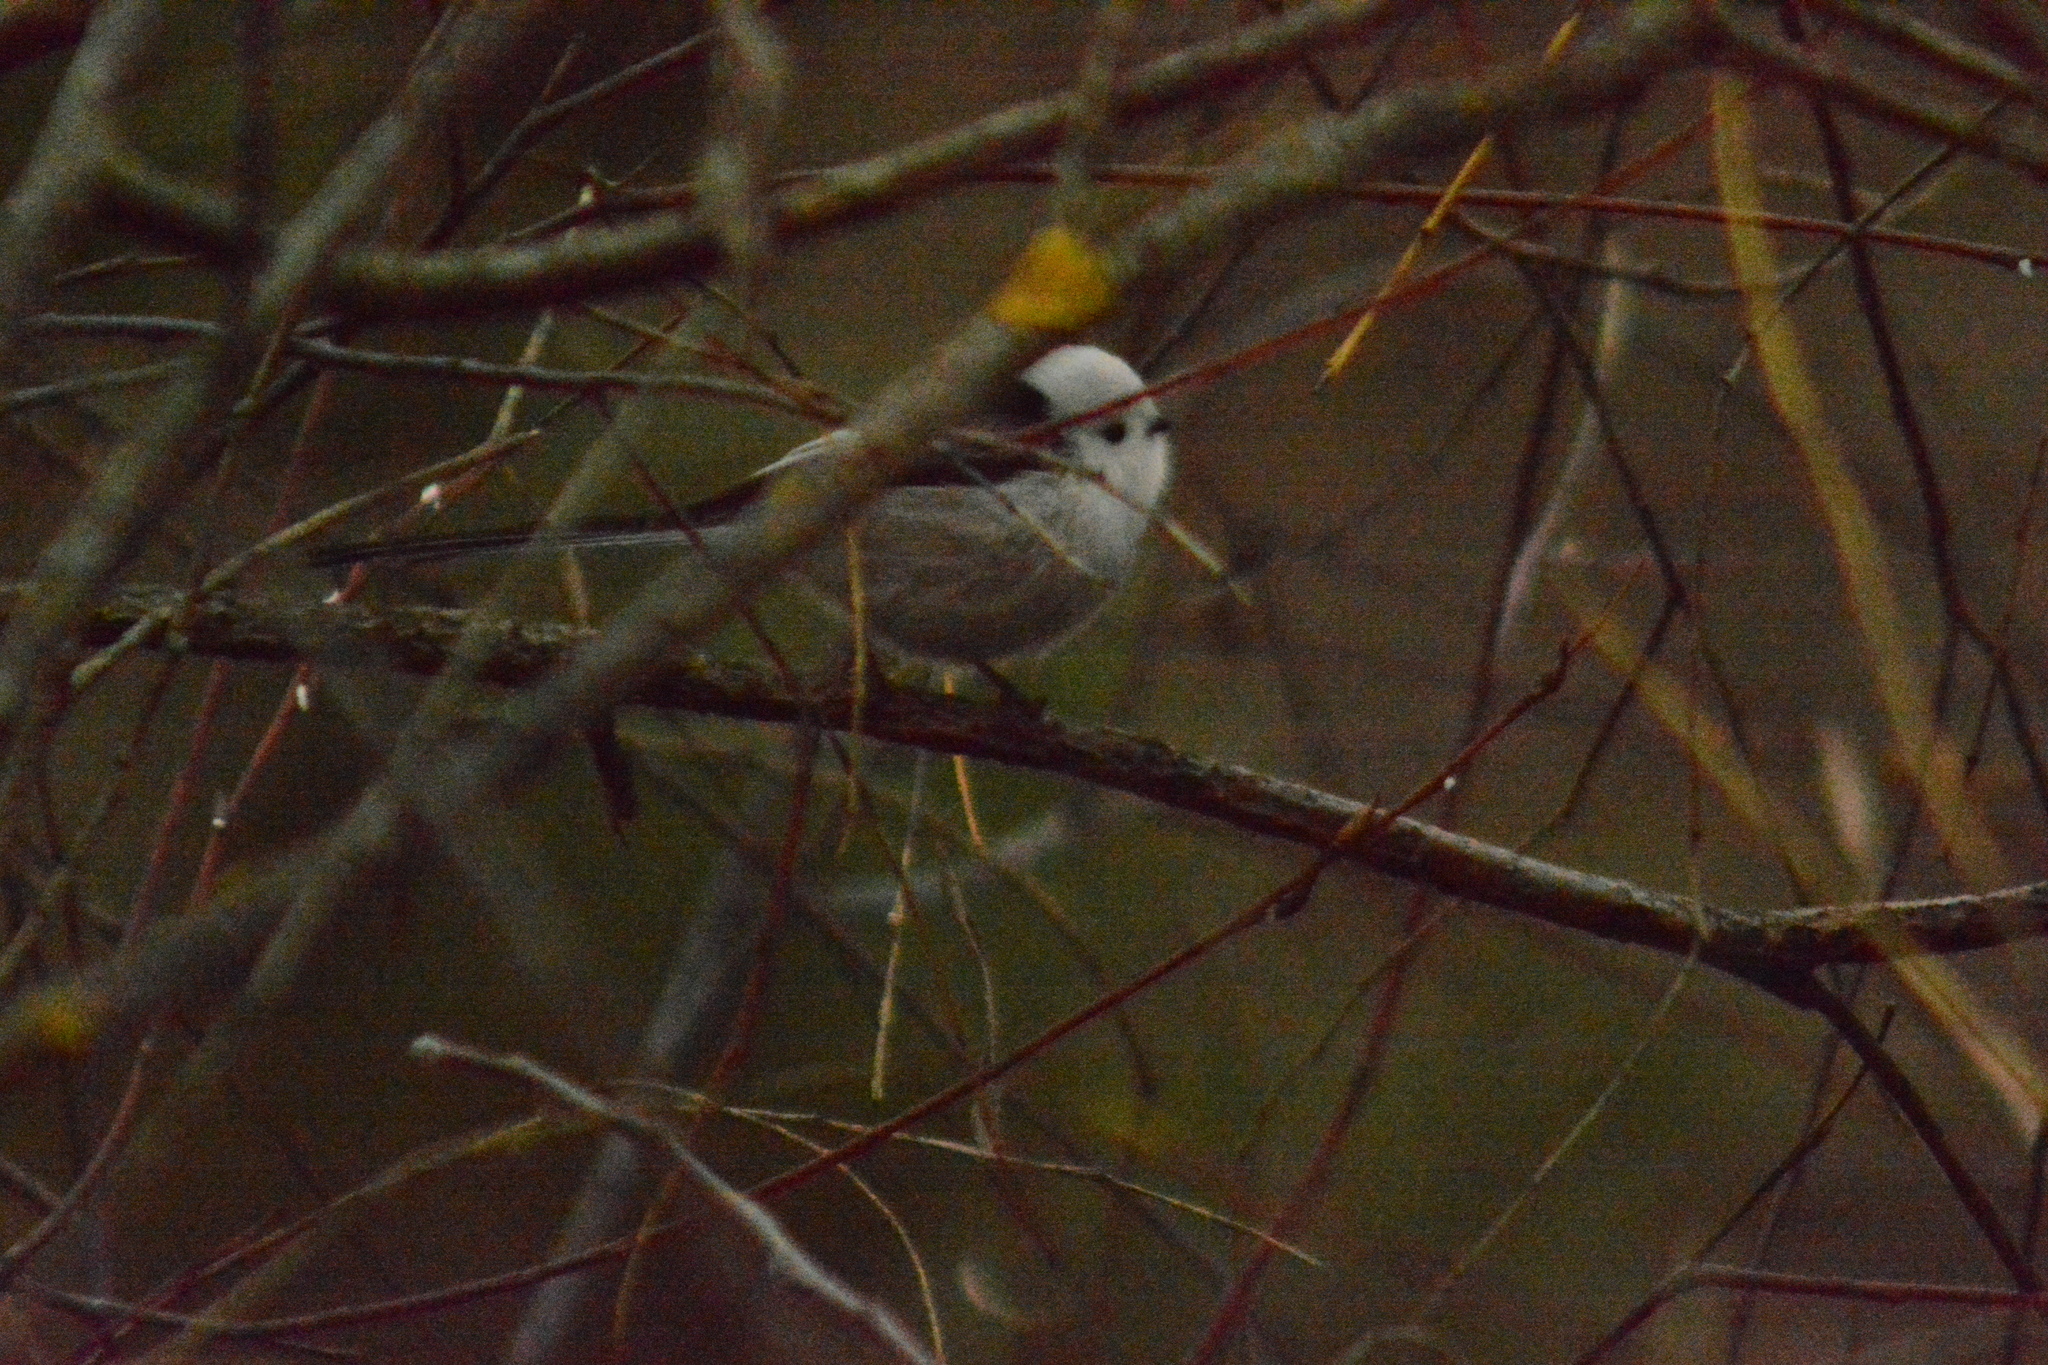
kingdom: Animalia
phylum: Chordata
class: Aves
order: Passeriformes
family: Aegithalidae
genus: Aegithalos
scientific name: Aegithalos caudatus
